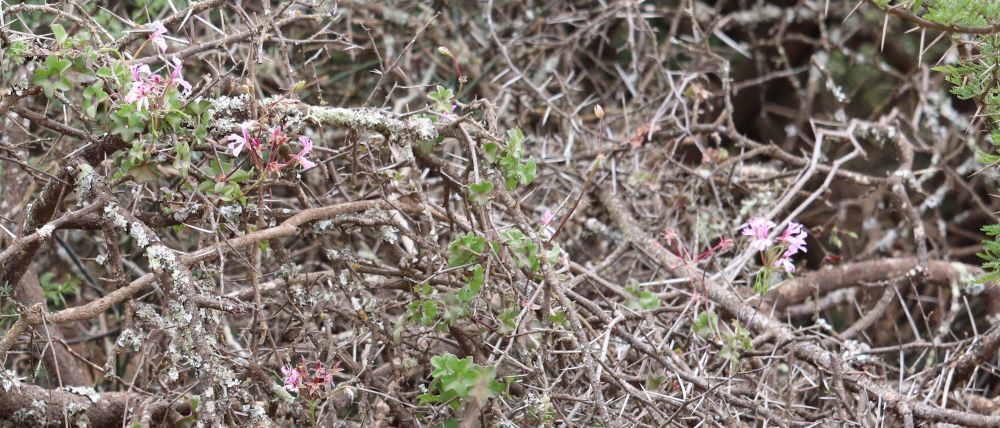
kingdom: Plantae
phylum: Tracheophyta
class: Magnoliopsida
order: Geraniales
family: Geraniaceae
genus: Pelargonium
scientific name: Pelargonium peltatum
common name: Ivyleaf geranium
